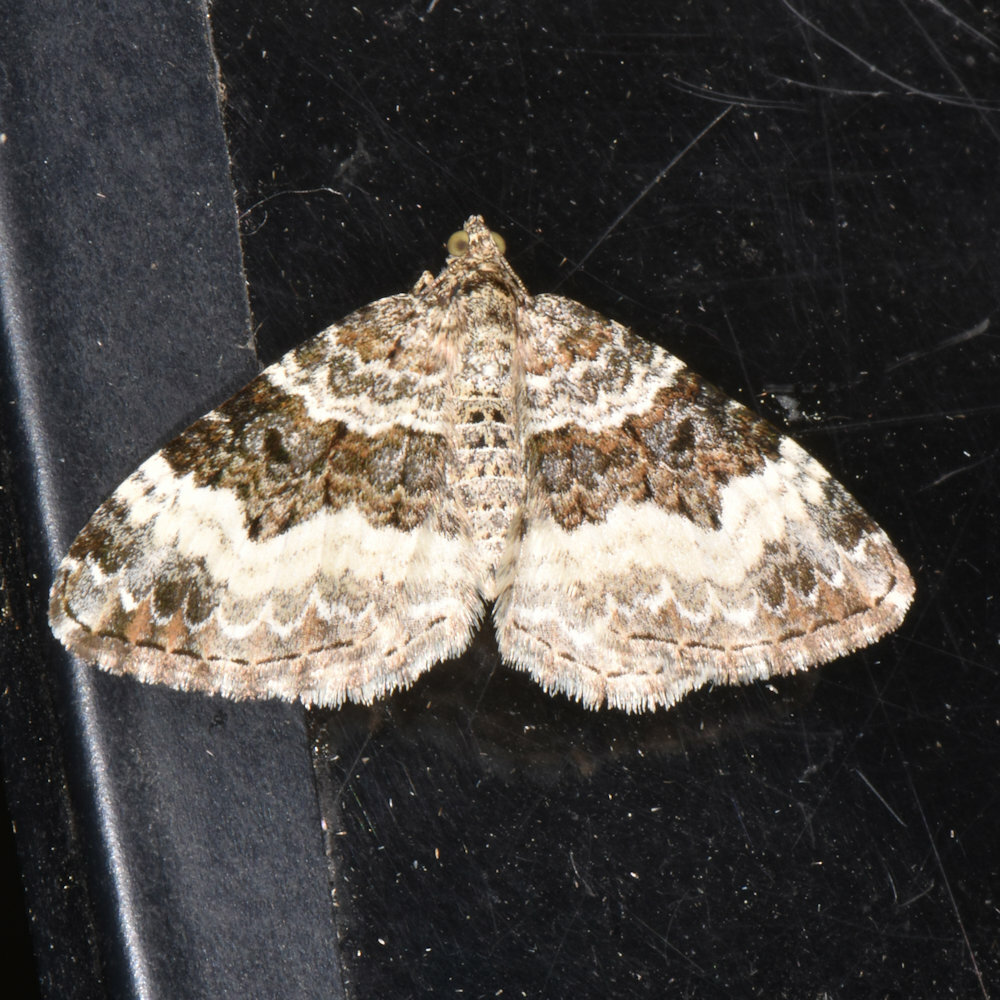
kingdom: Animalia
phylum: Arthropoda
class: Insecta
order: Lepidoptera
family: Geometridae
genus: Epirrhoe
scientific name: Epirrhoe alternata
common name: Common carpet
